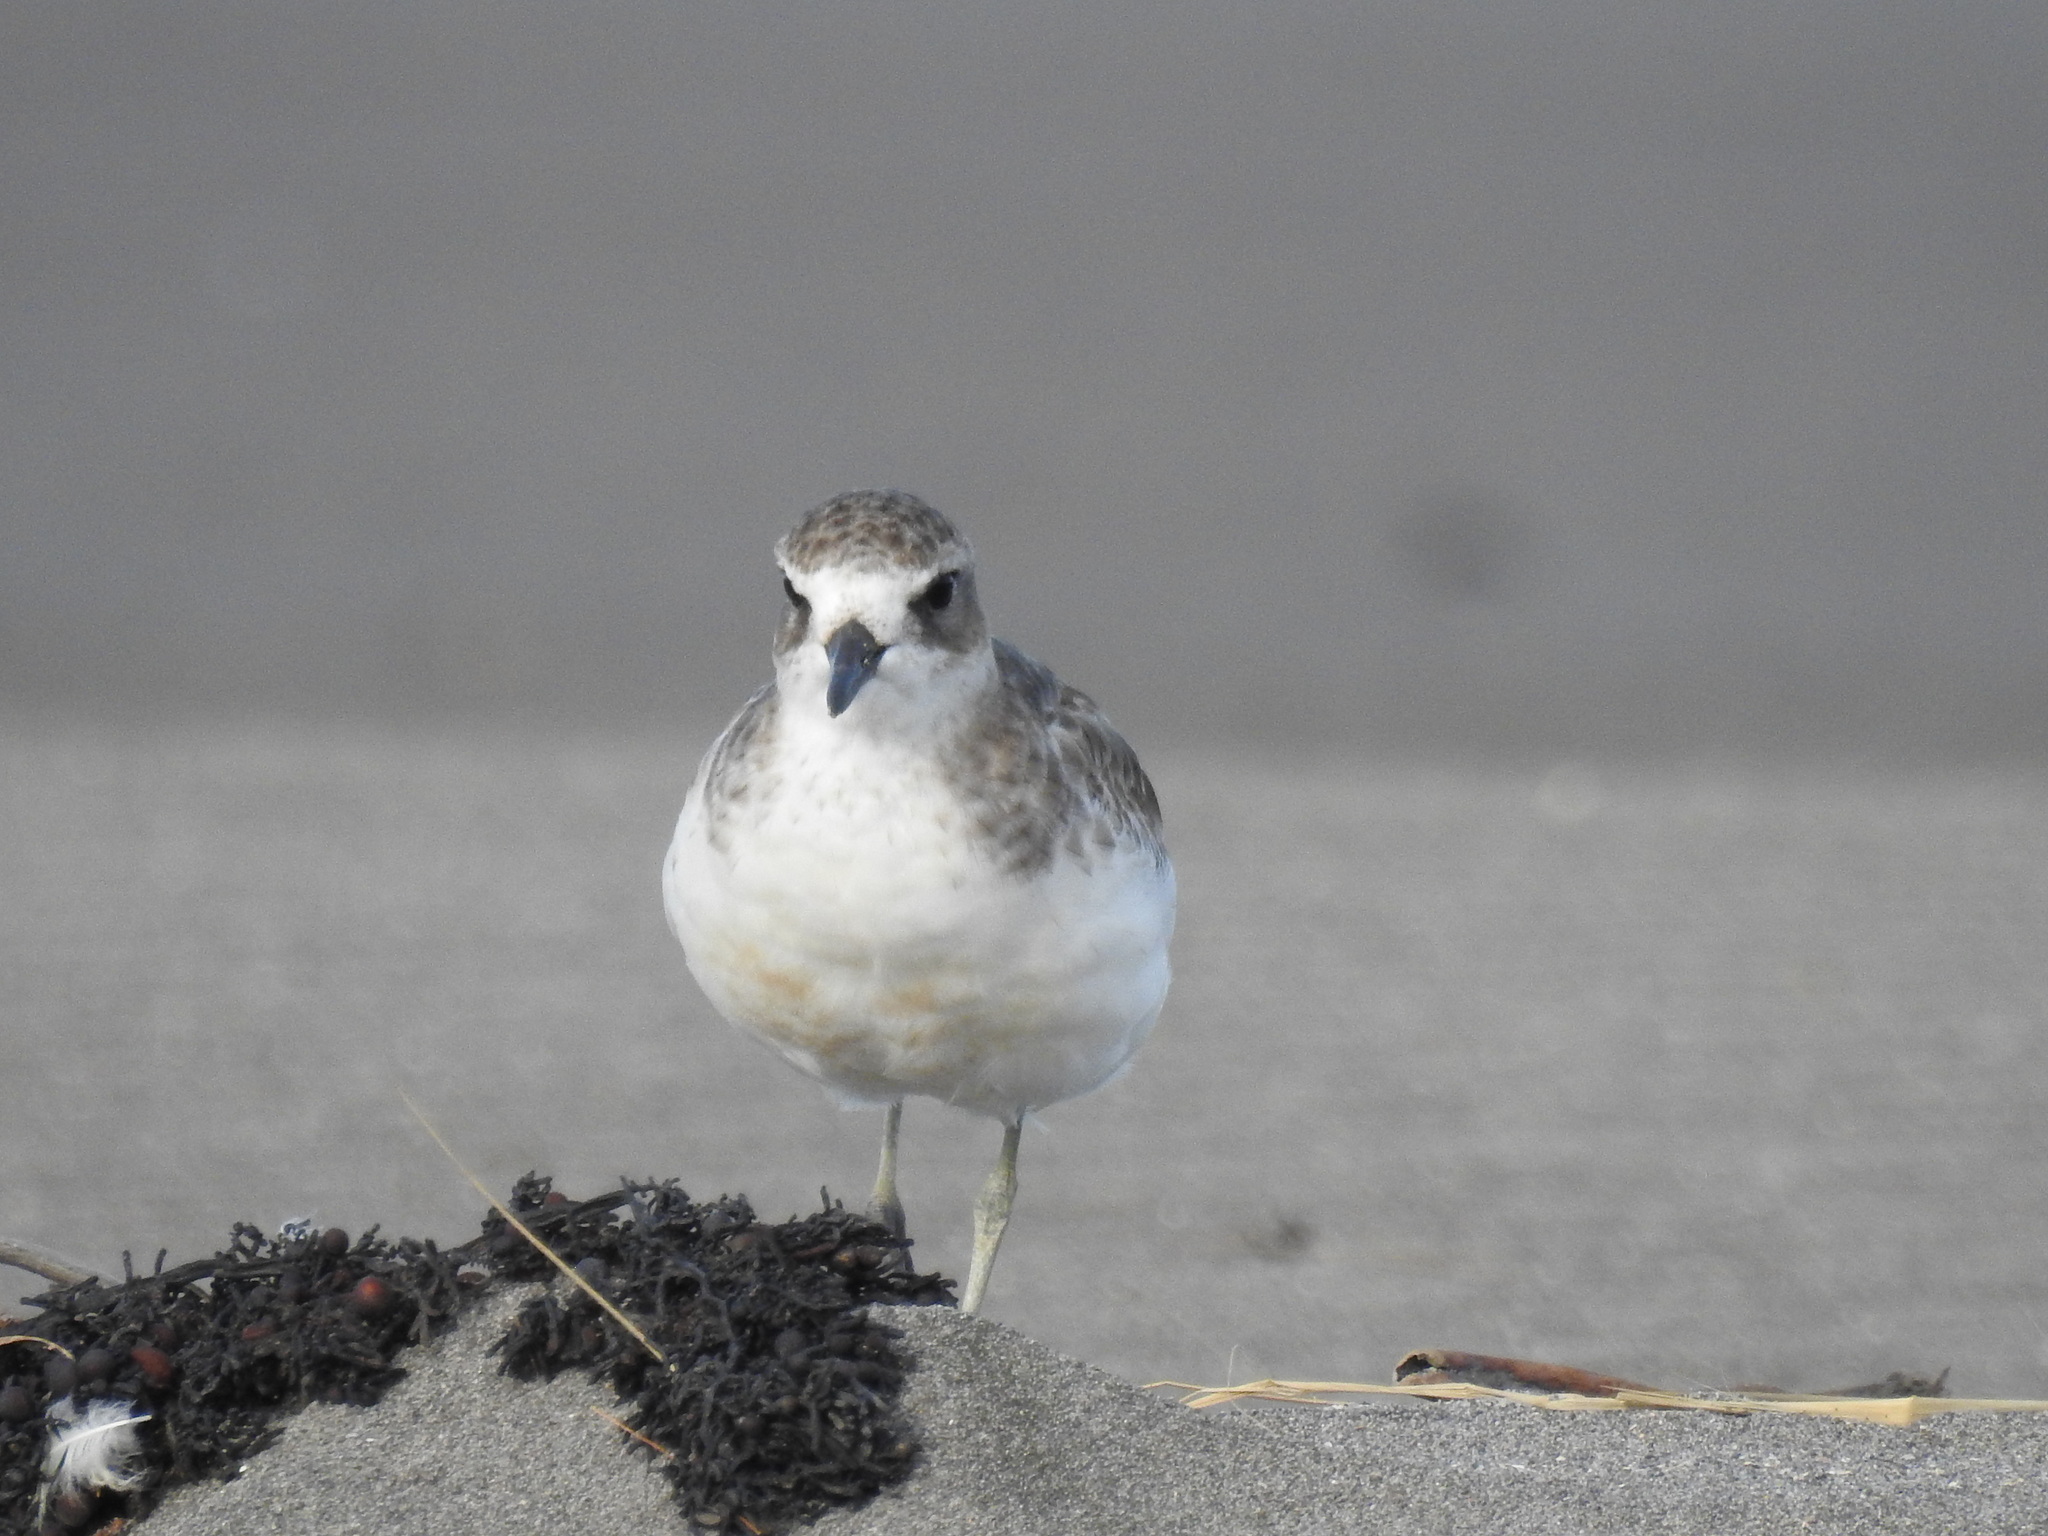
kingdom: Animalia
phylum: Chordata
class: Aves
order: Charadriiformes
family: Charadriidae
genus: Anarhynchus
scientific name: Anarhynchus
